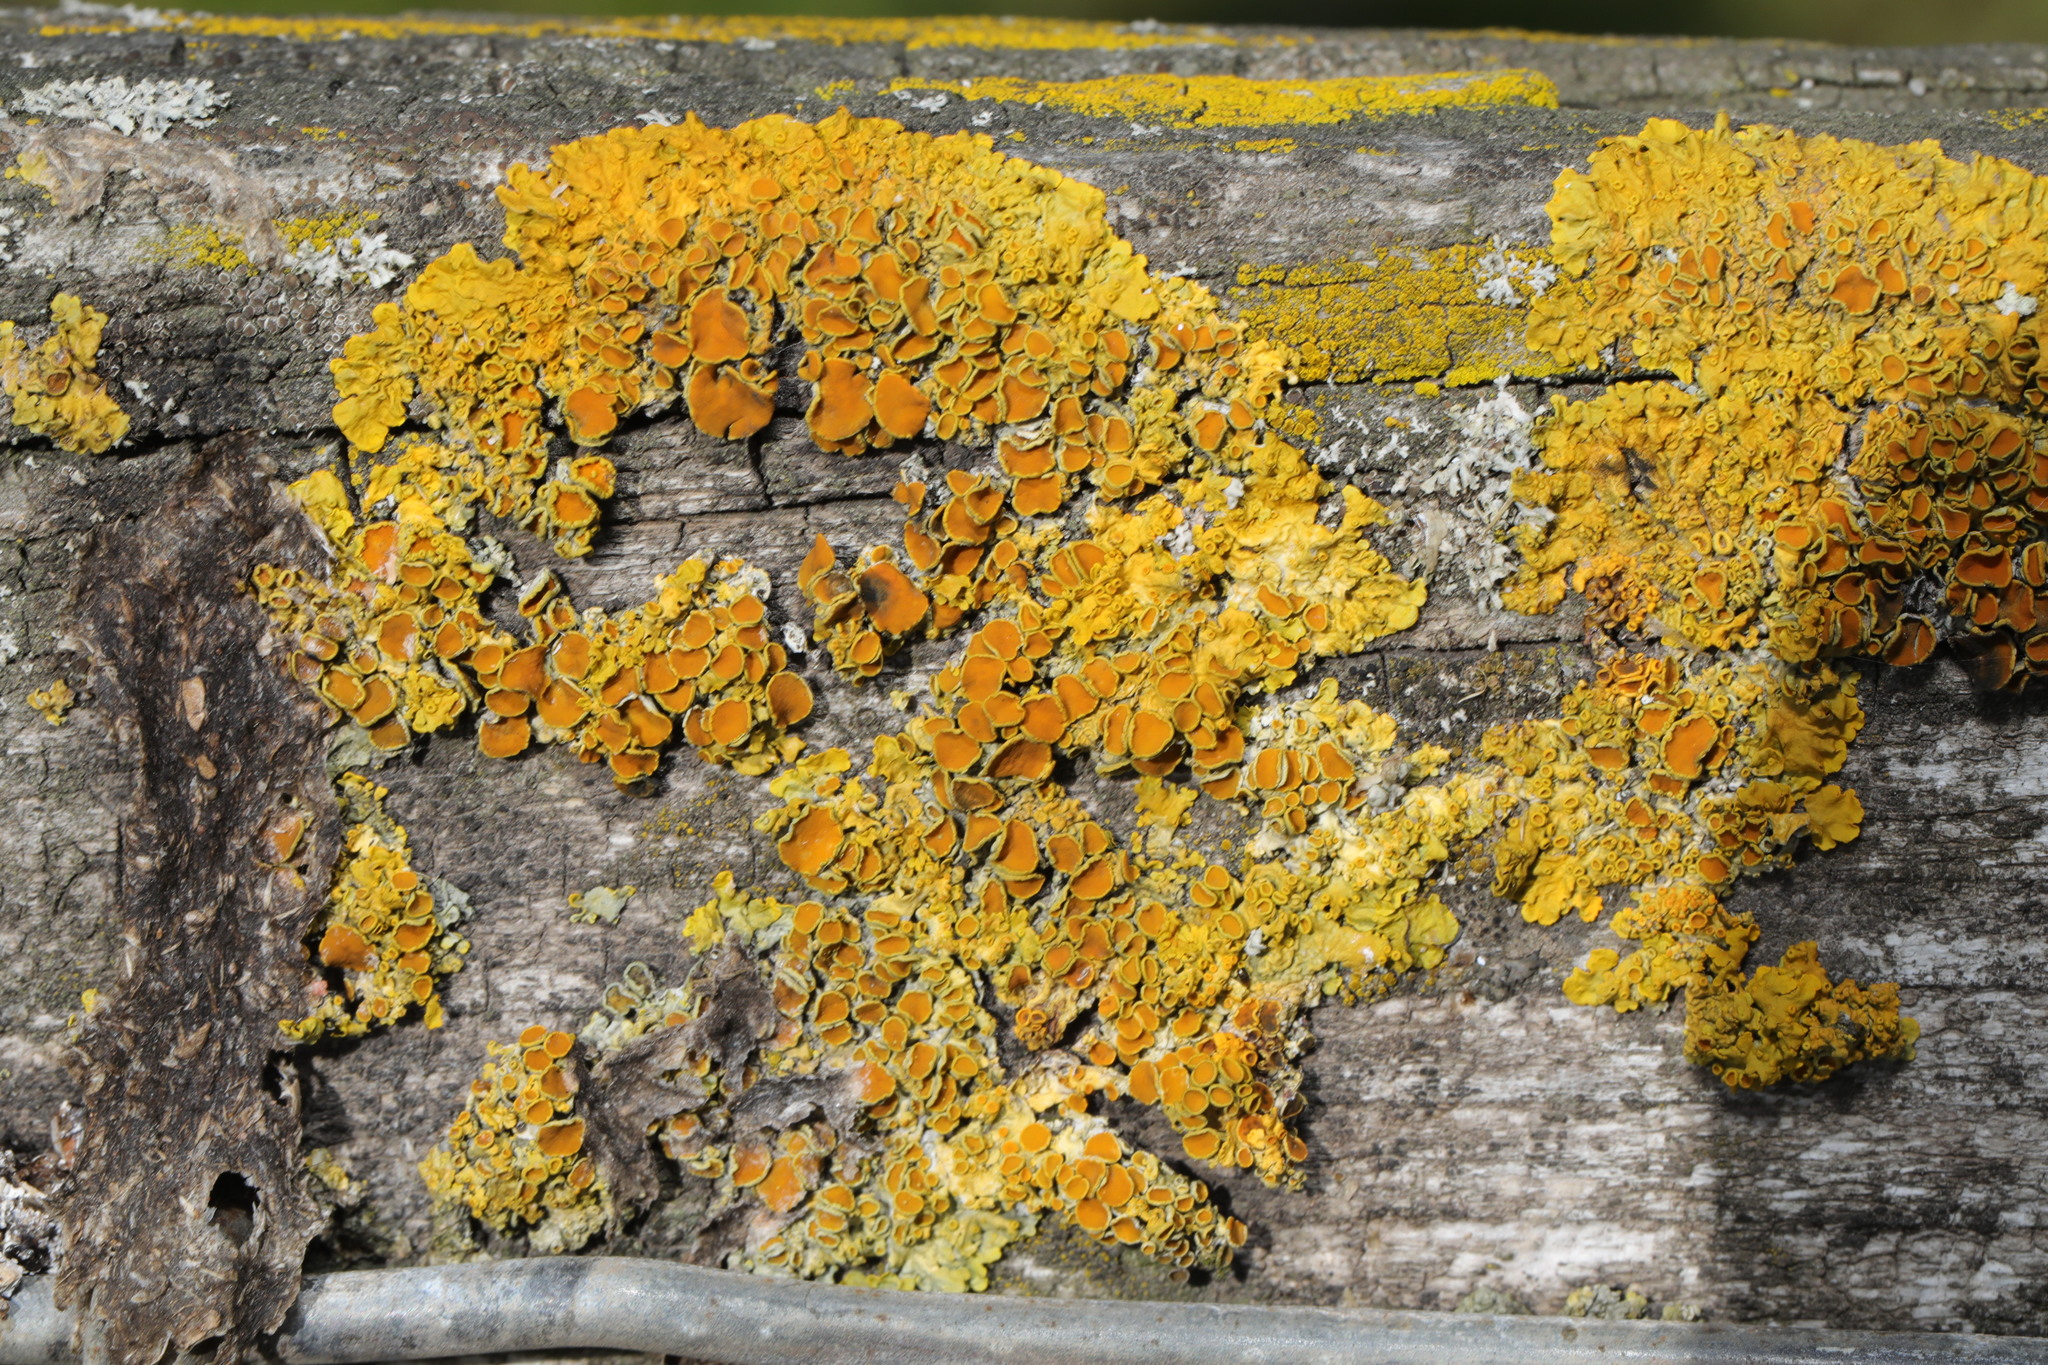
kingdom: Fungi
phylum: Ascomycota
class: Lecanoromycetes
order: Teloschistales
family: Teloschistaceae
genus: Xanthoria
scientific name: Xanthoria parietina
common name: Common orange lichen
